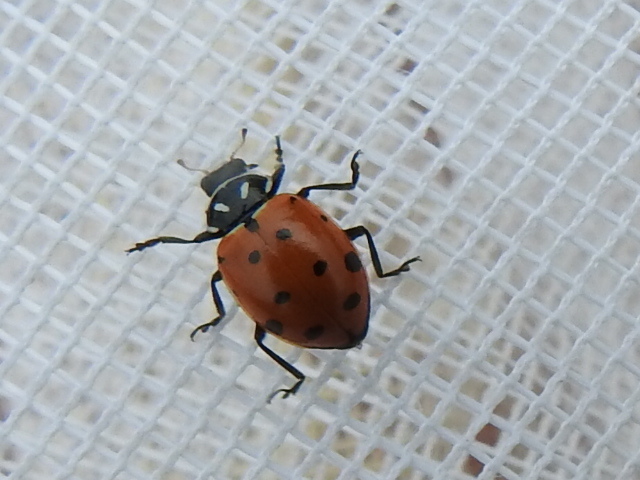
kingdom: Animalia
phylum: Arthropoda
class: Insecta
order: Coleoptera
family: Coccinellidae
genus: Hippodamia
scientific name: Hippodamia convergens
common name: Convergent lady beetle
